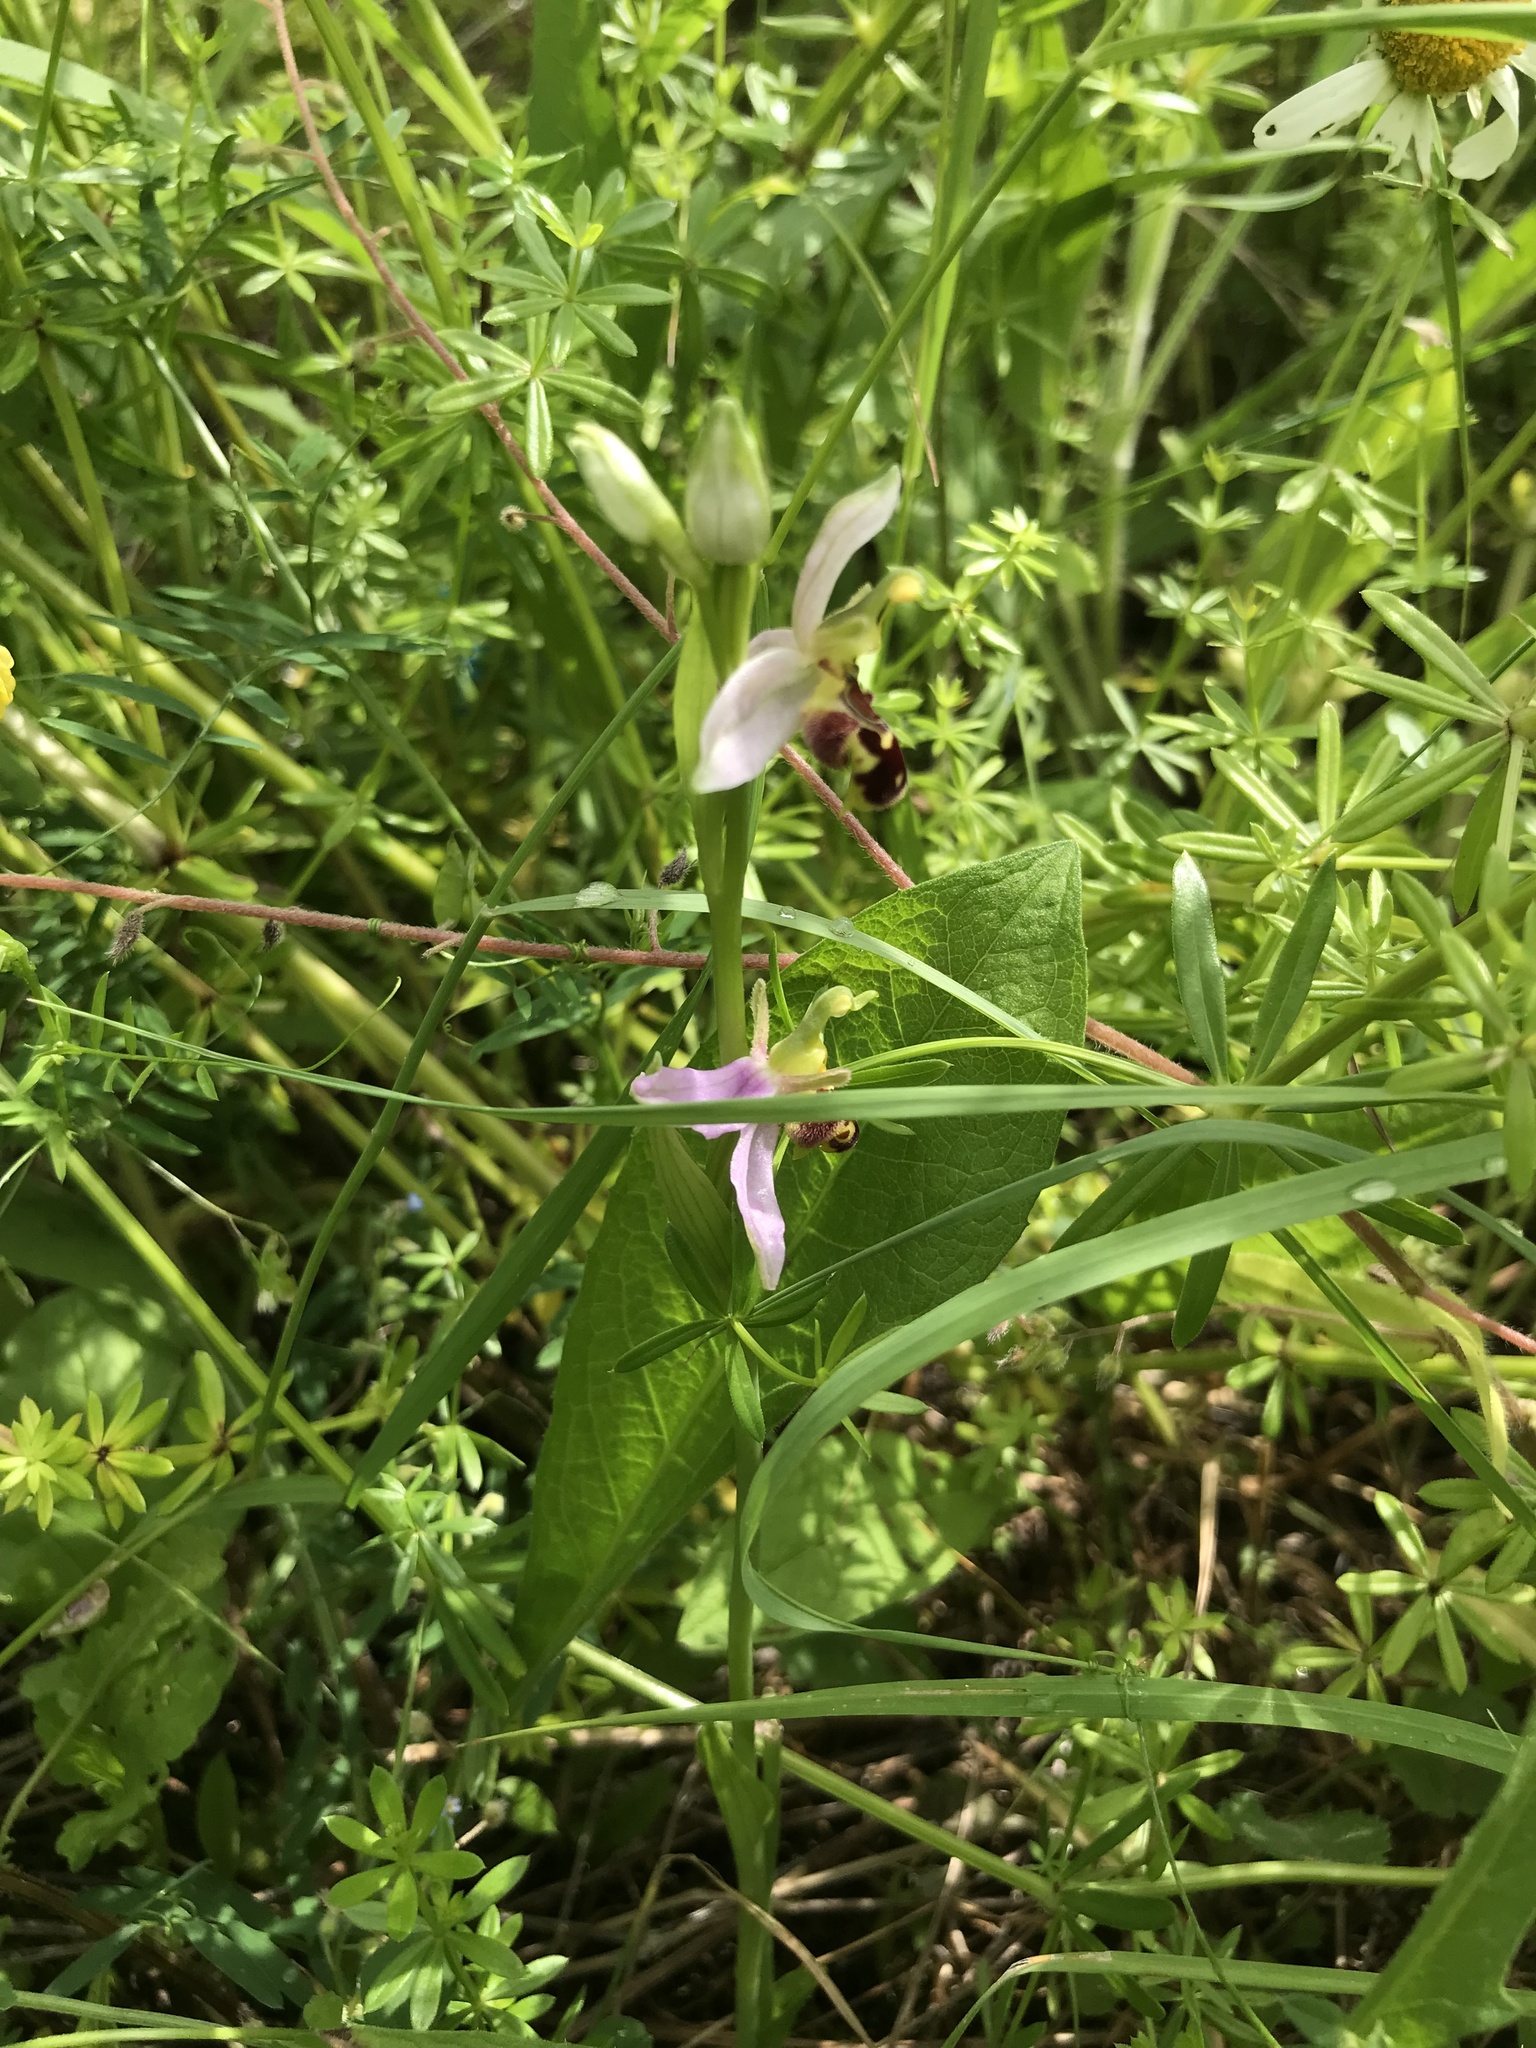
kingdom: Plantae
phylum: Tracheophyta
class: Liliopsida
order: Asparagales
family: Orchidaceae
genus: Ophrys
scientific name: Ophrys apifera
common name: Bee orchid
